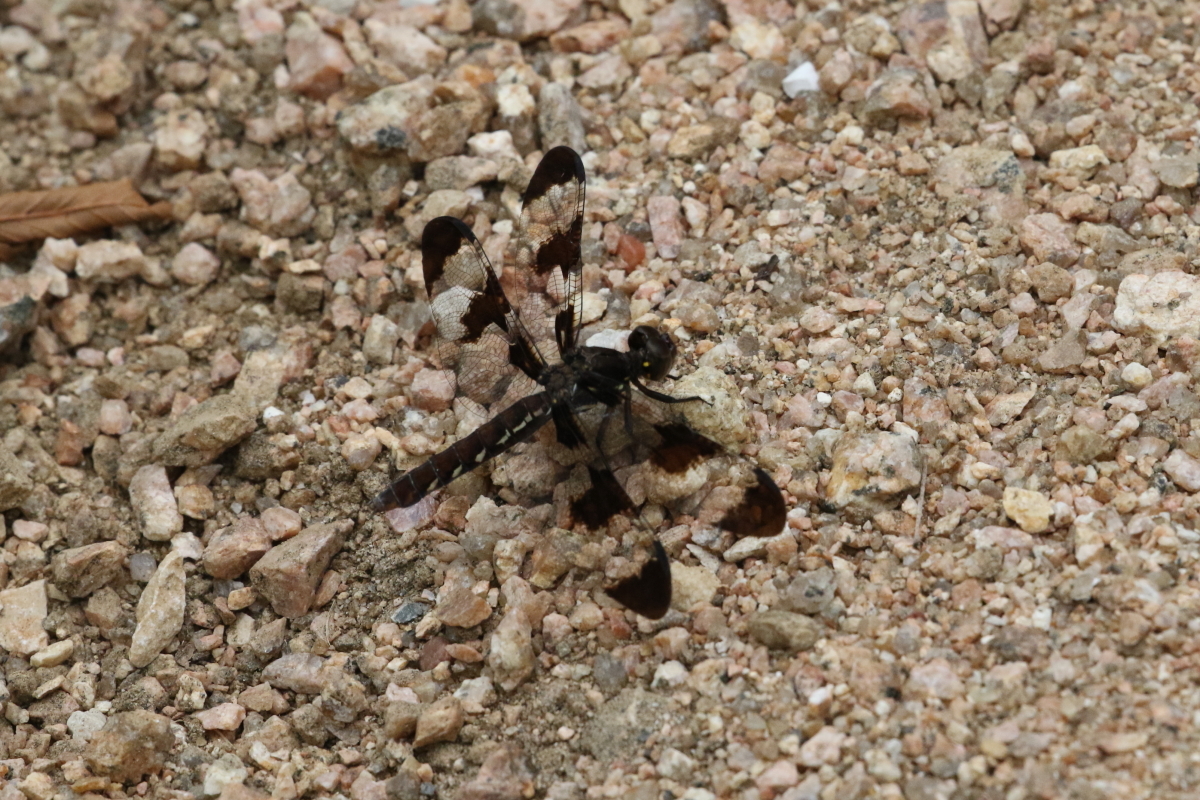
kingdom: Animalia
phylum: Arthropoda
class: Insecta
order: Odonata
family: Libellulidae
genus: Plathemis
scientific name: Plathemis lydia
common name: Common whitetail
